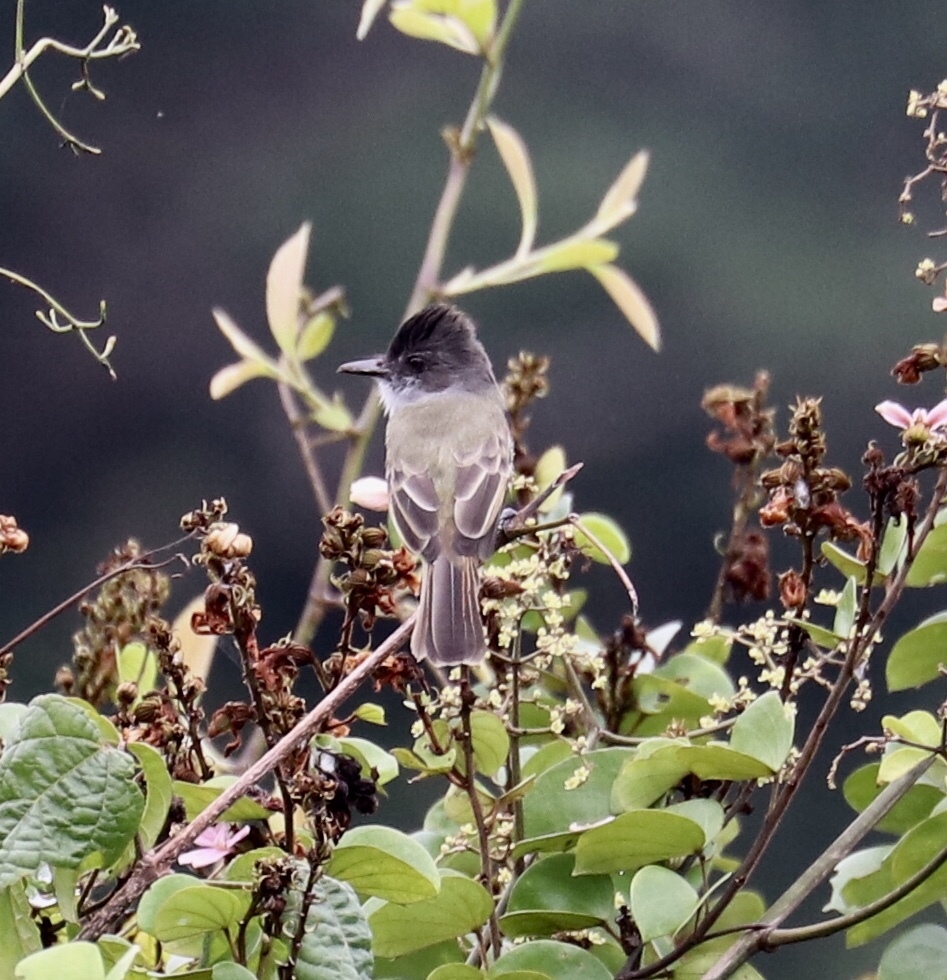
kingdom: Animalia
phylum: Chordata
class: Aves
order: Passeriformes
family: Tyrannidae
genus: Myiarchus
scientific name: Myiarchus tuberculifer
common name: Dusky-capped flycatcher
